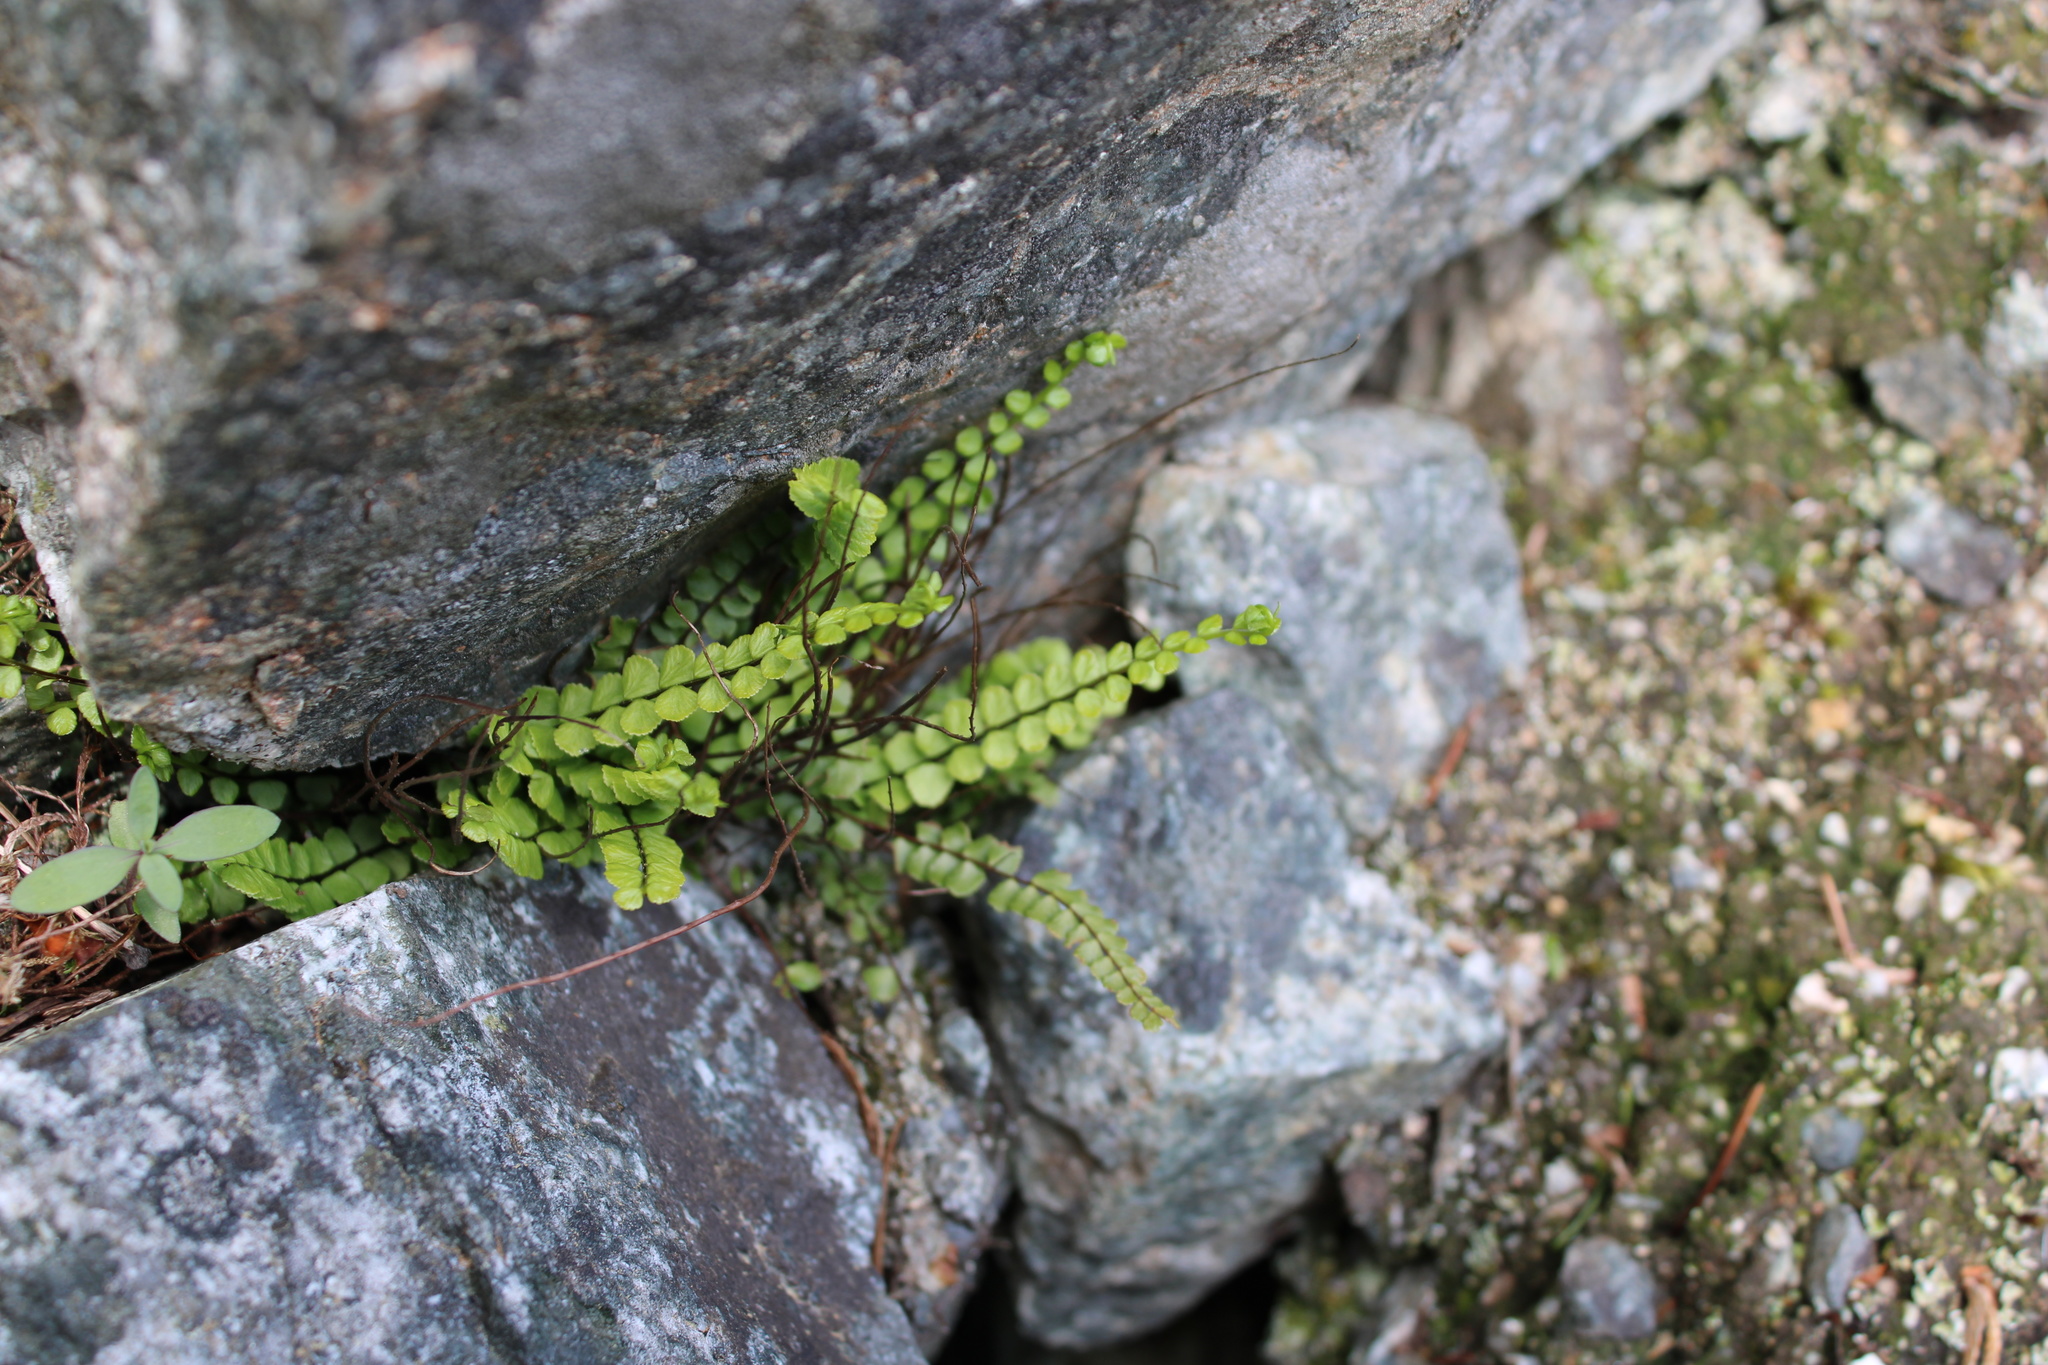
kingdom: Plantae
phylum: Tracheophyta
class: Polypodiopsida
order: Polypodiales
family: Aspleniaceae
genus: Asplenium
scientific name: Asplenium trichomanes
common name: Maidenhair spleenwort
